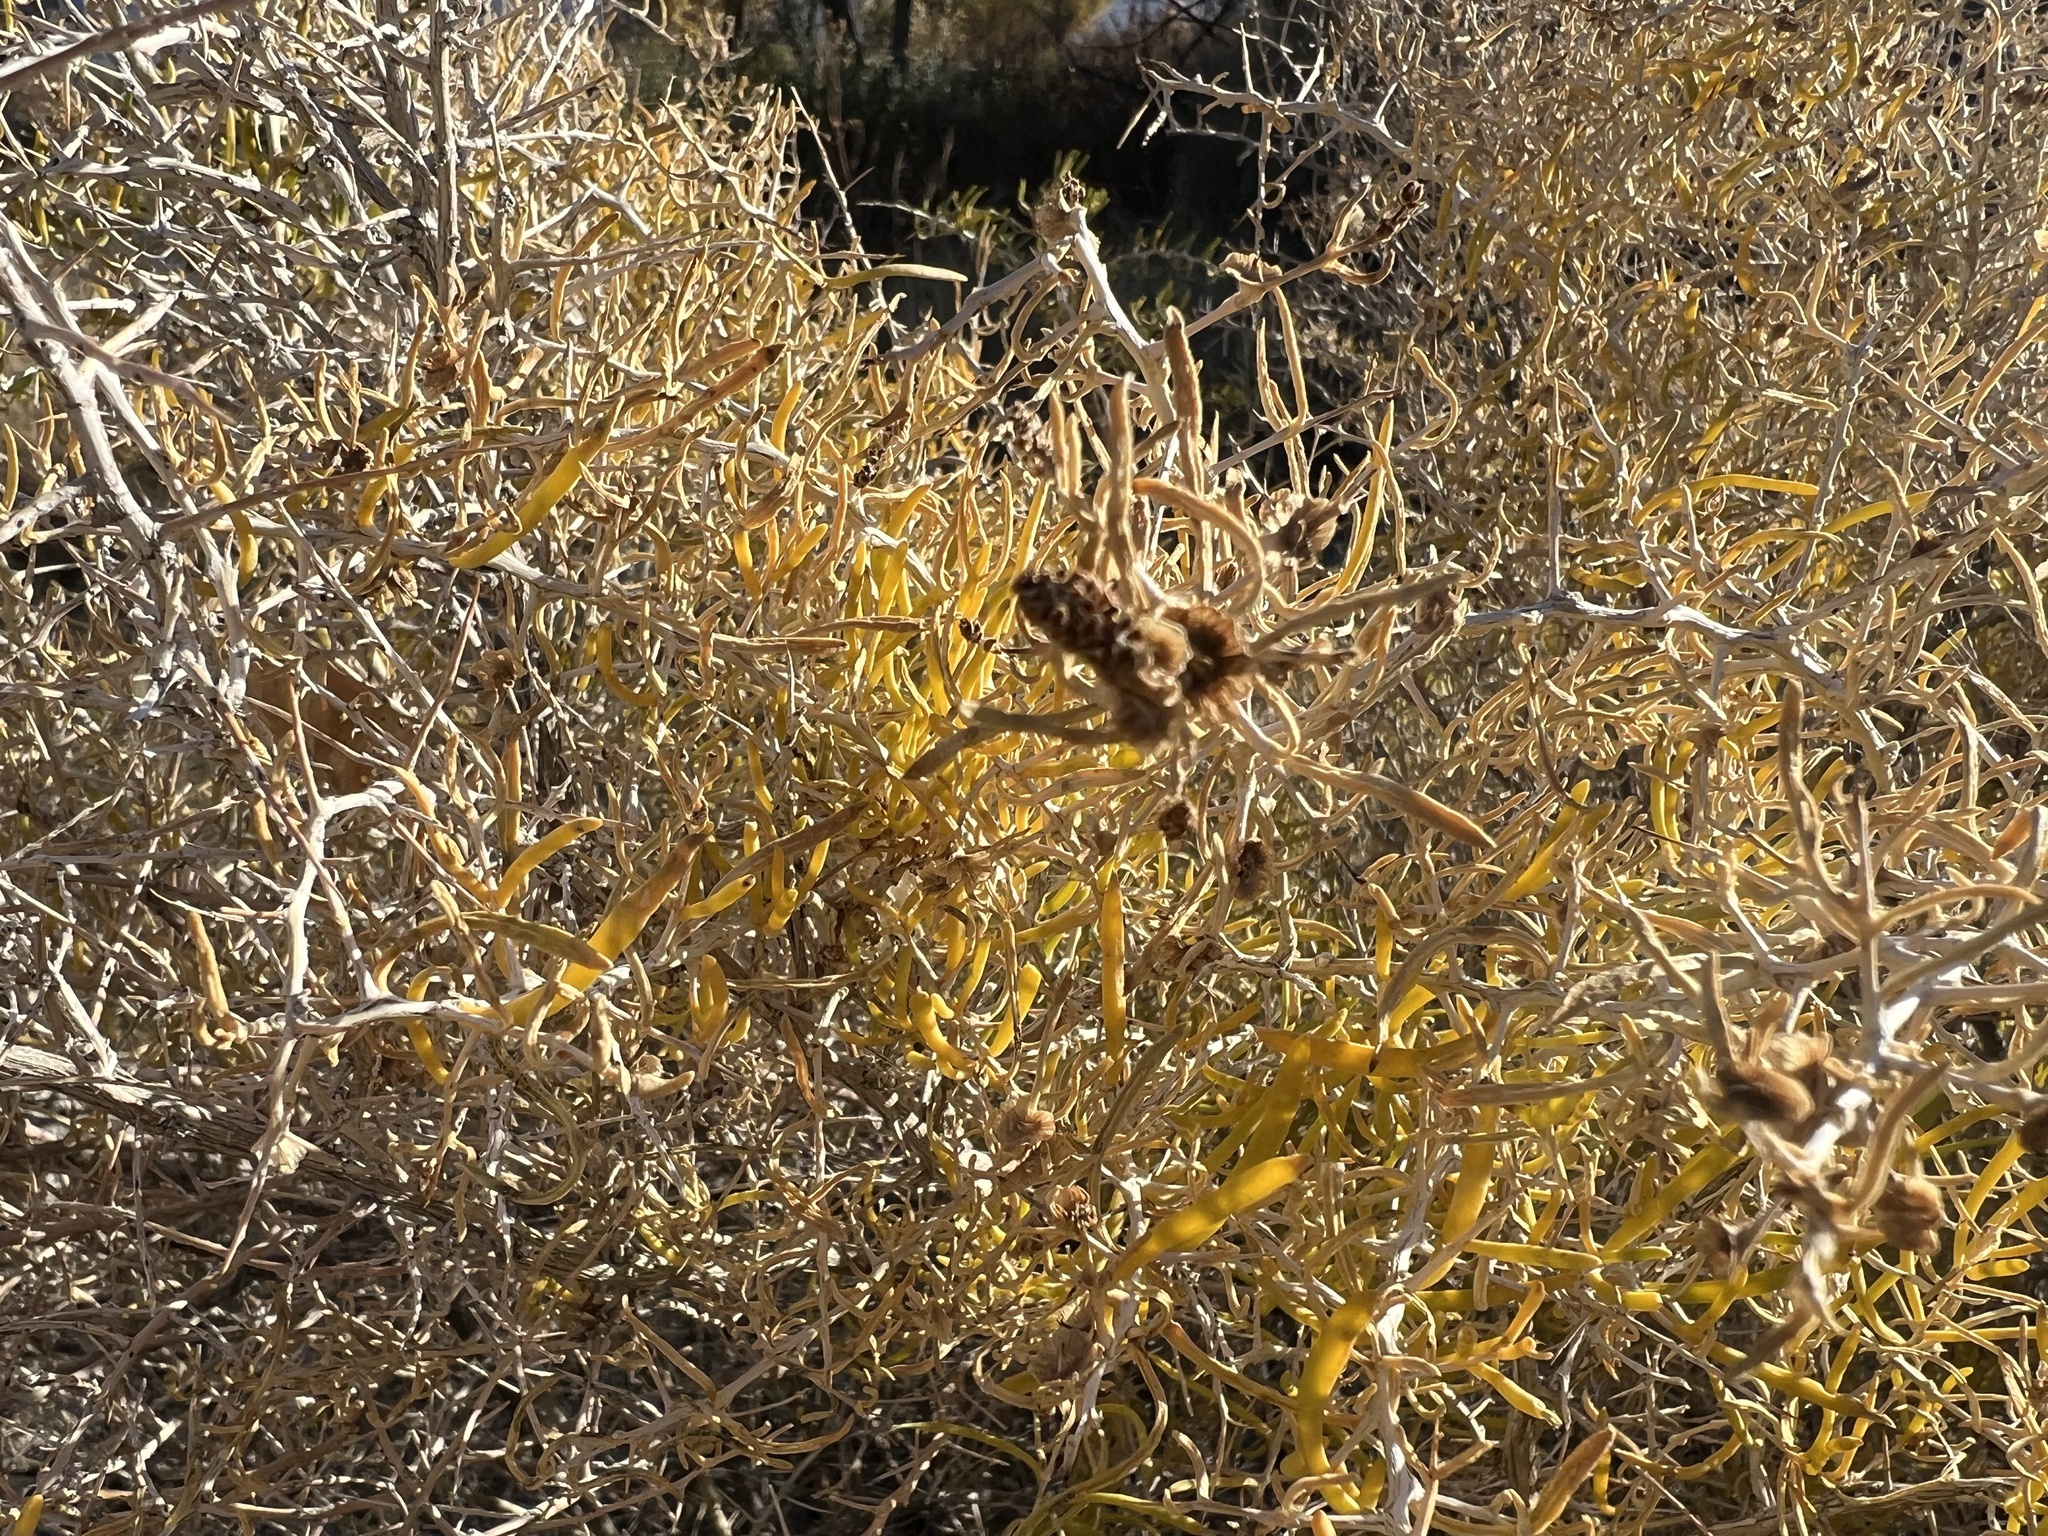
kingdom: Plantae
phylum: Tracheophyta
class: Magnoliopsida
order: Caryophyllales
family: Sarcobataceae
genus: Sarcobatus
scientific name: Sarcobatus vermiculatus
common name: Greasewood
